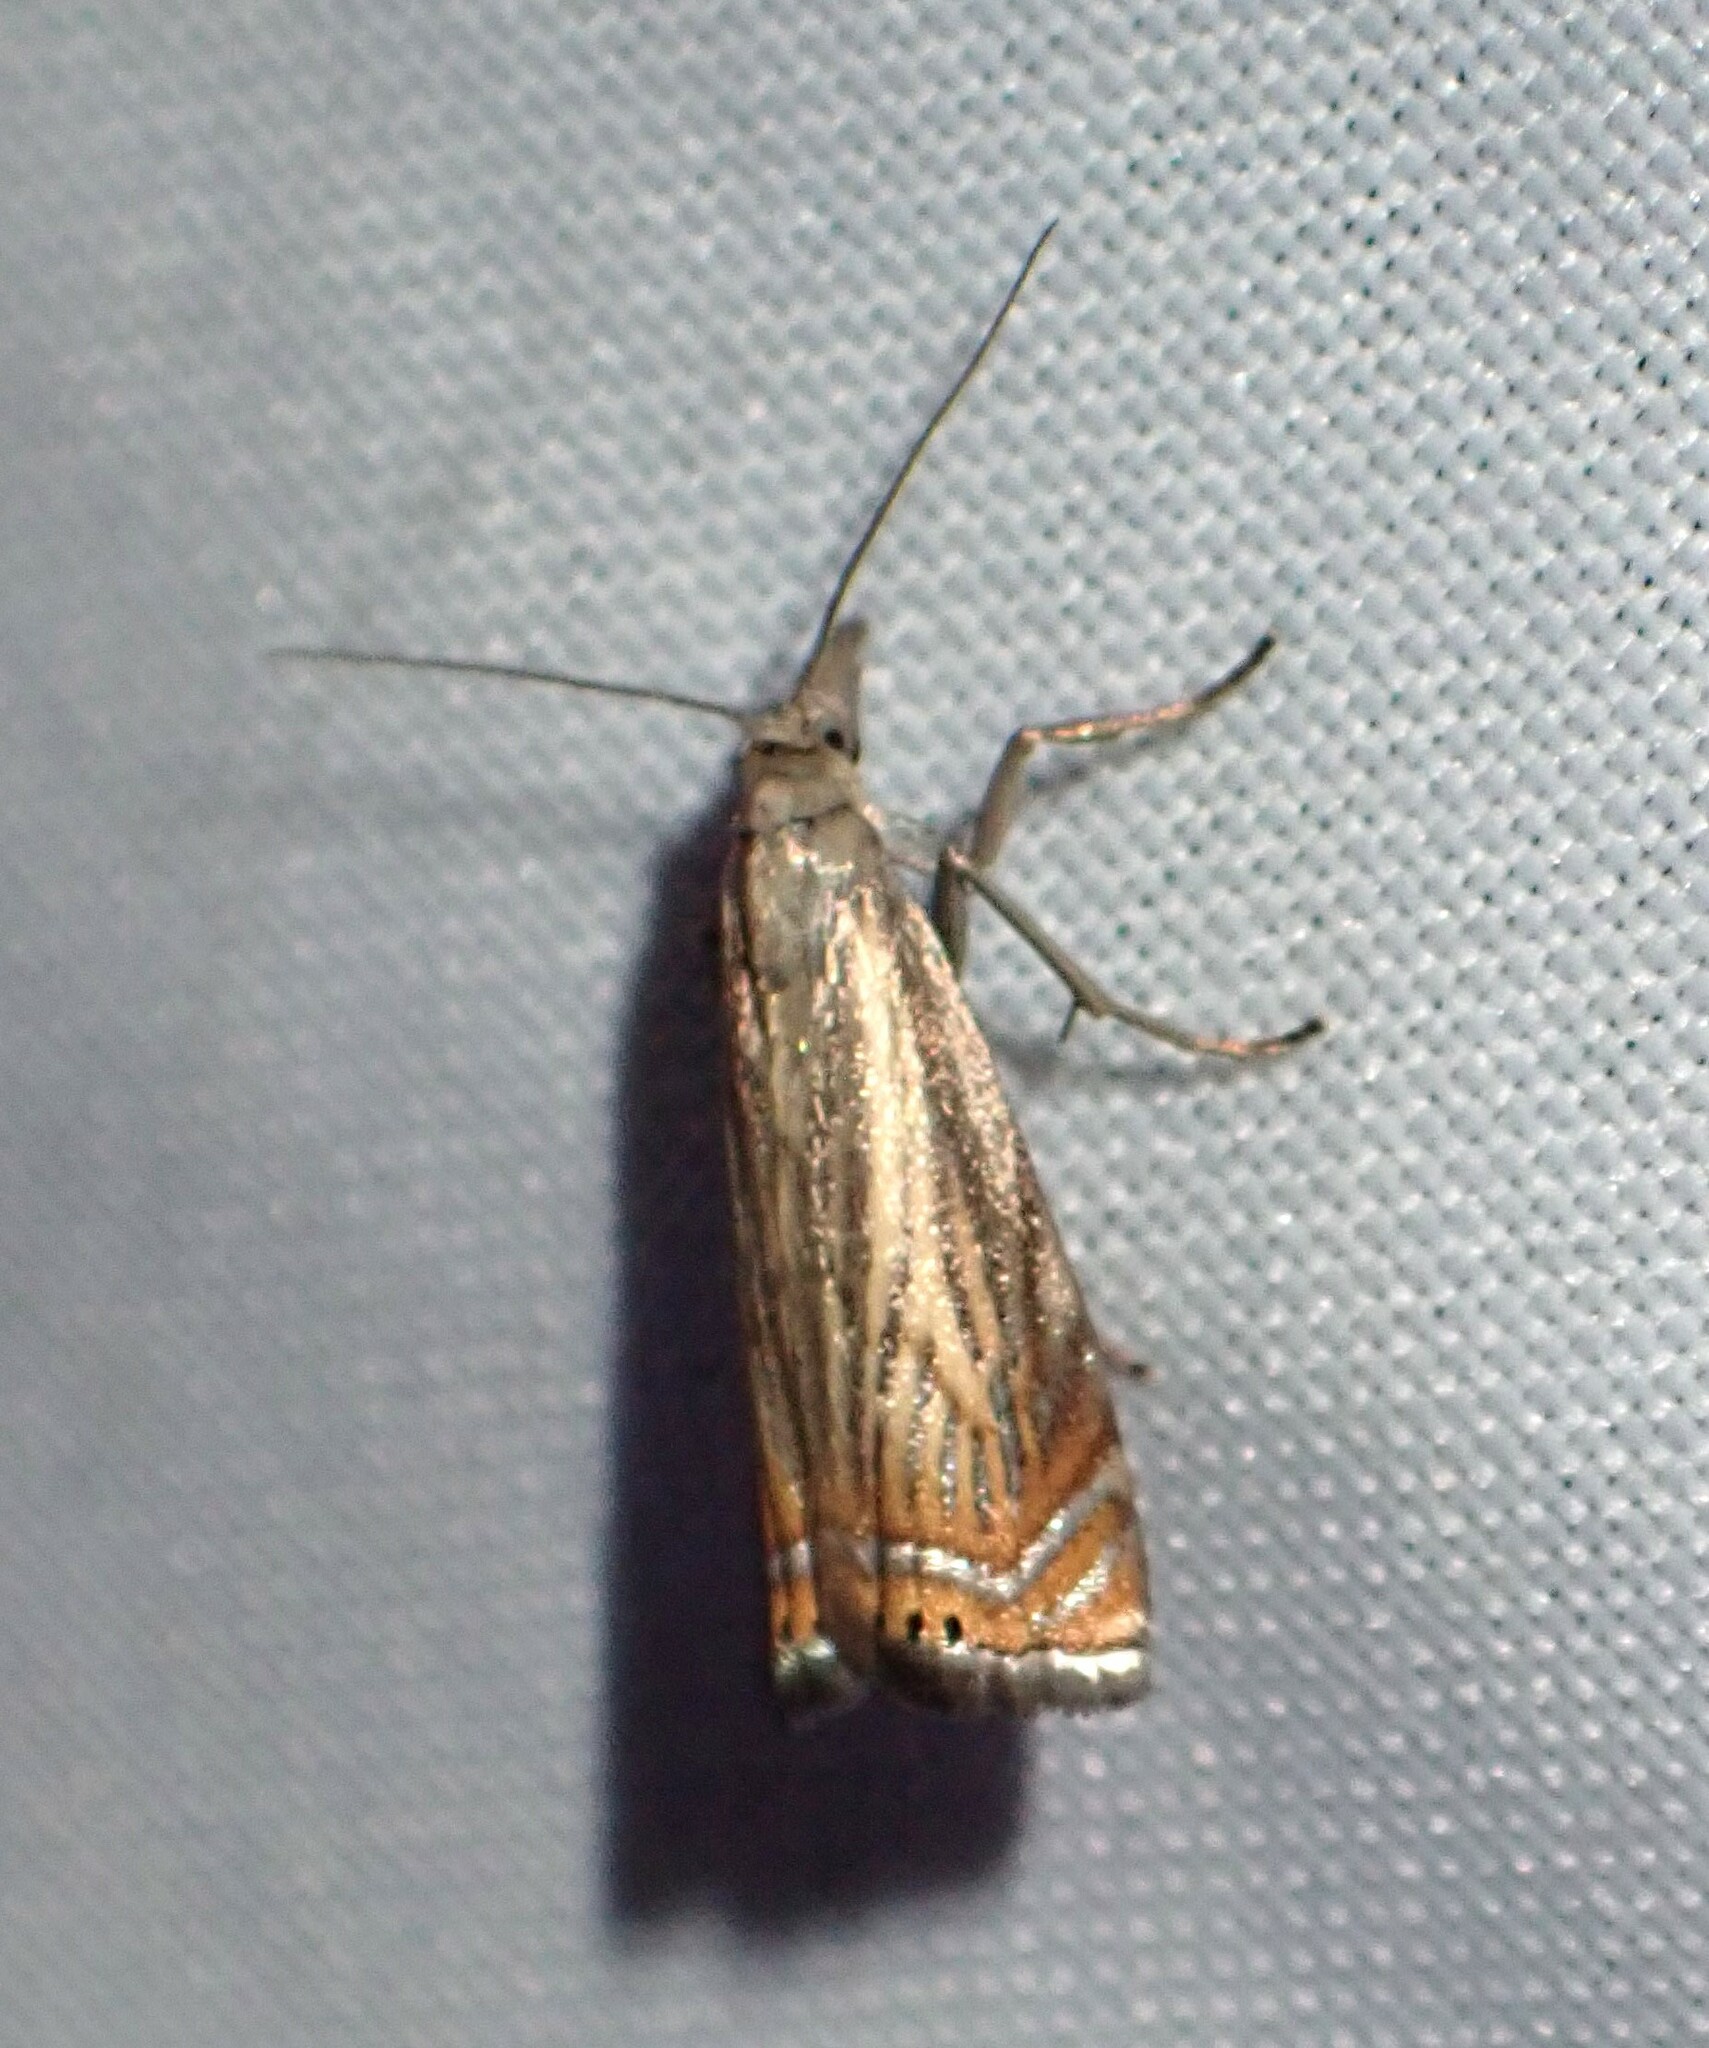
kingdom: Animalia
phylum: Arthropoda
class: Insecta
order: Lepidoptera
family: Crambidae
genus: Chrysoteuchia
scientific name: Chrysoteuchia topiarius
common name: Topiary grass-veneer
